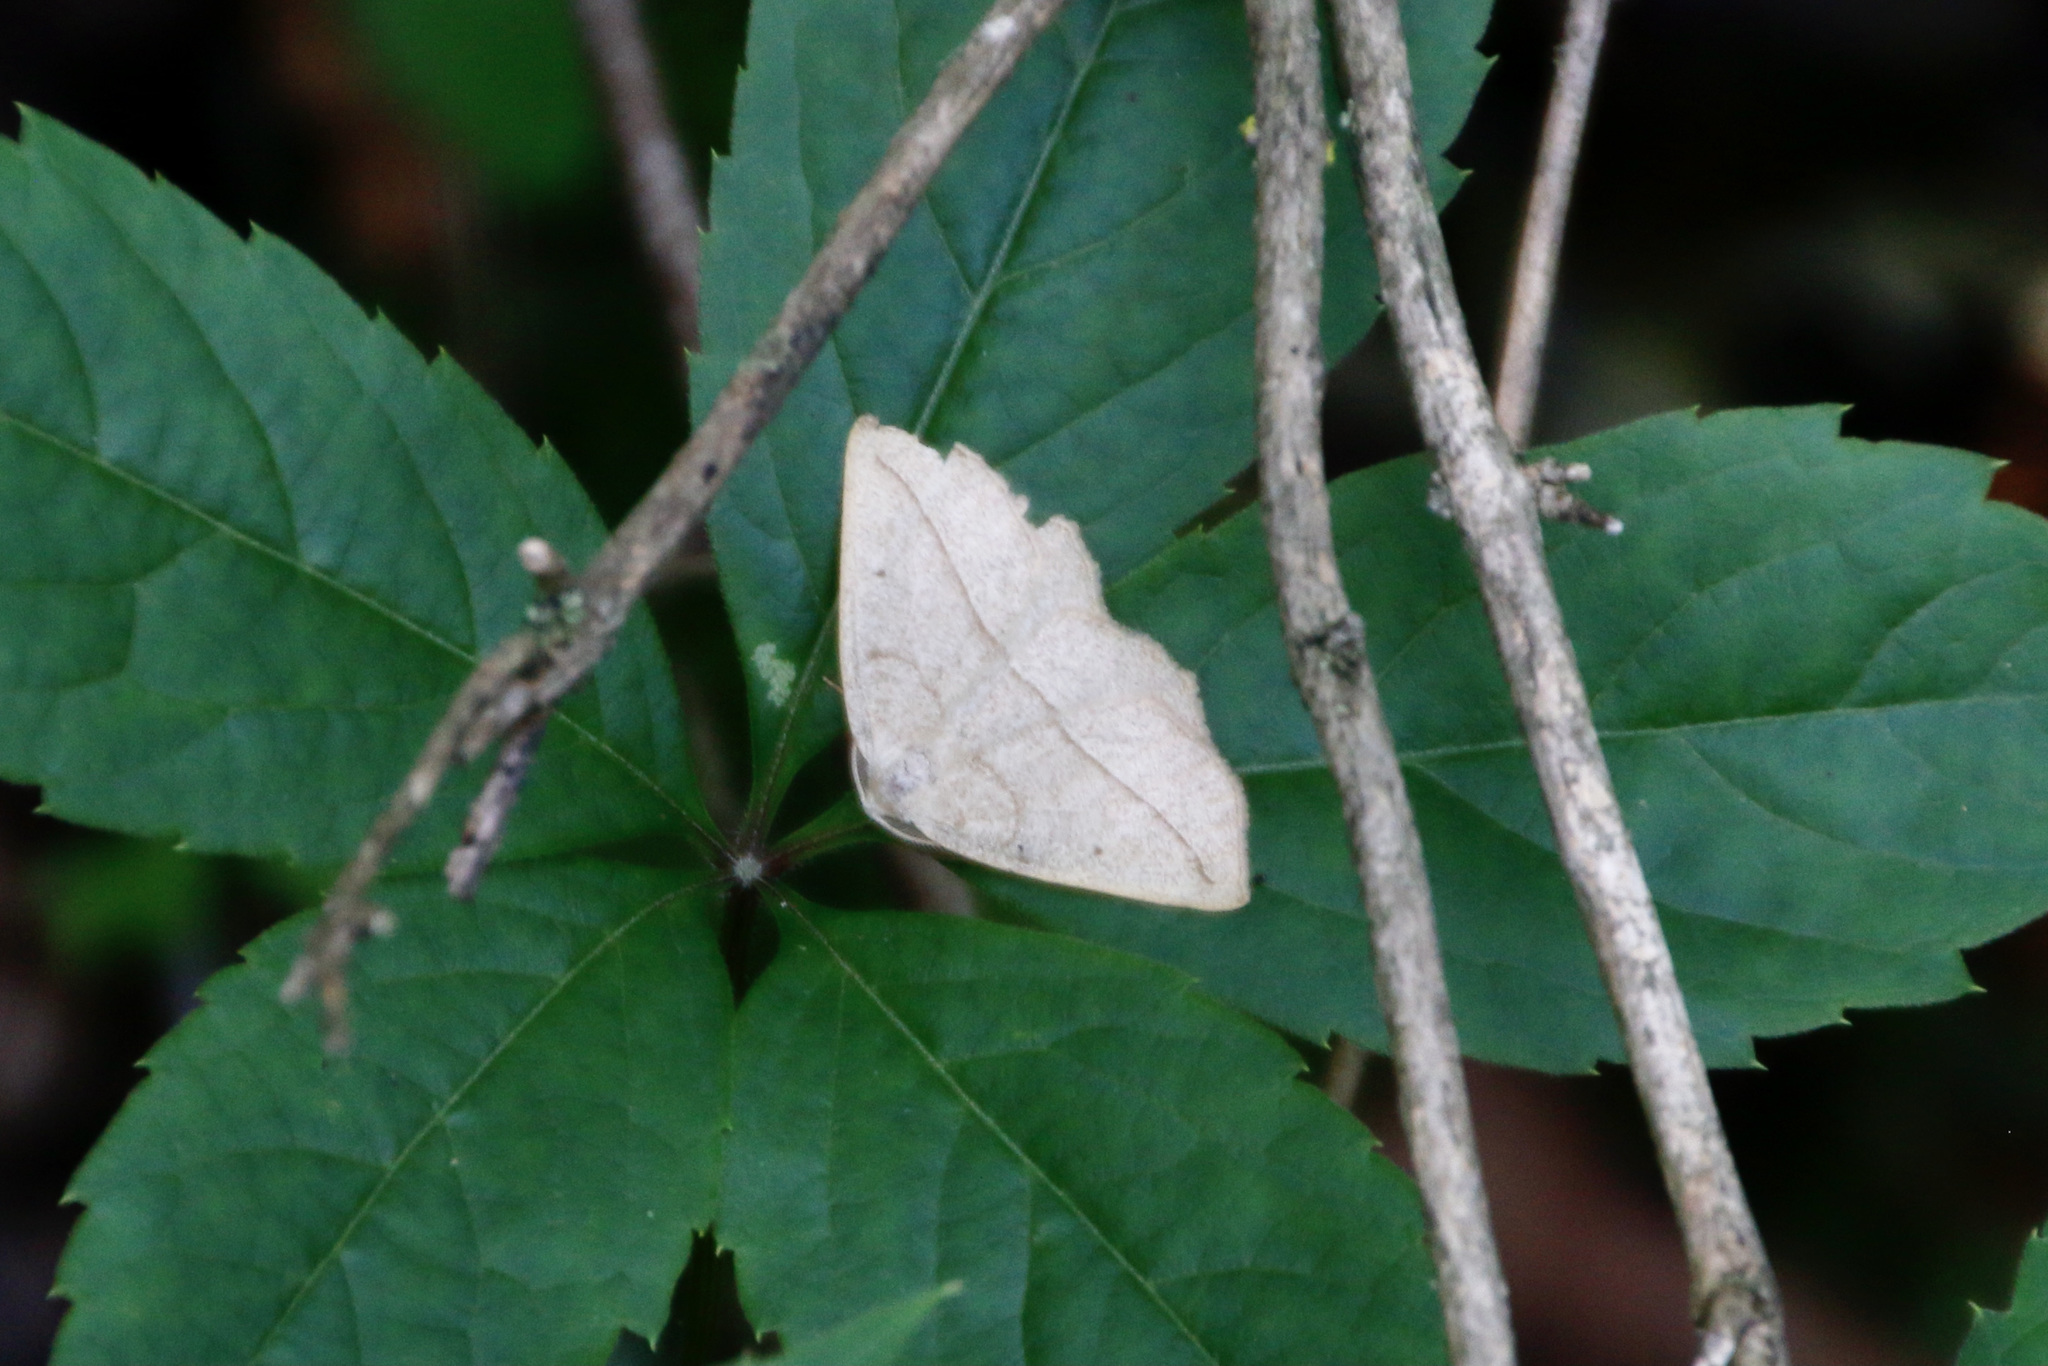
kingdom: Animalia
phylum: Arthropoda
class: Insecta
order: Lepidoptera
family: Geometridae
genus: Eusarca
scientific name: Eusarca confusaria
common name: Confused eusarca
